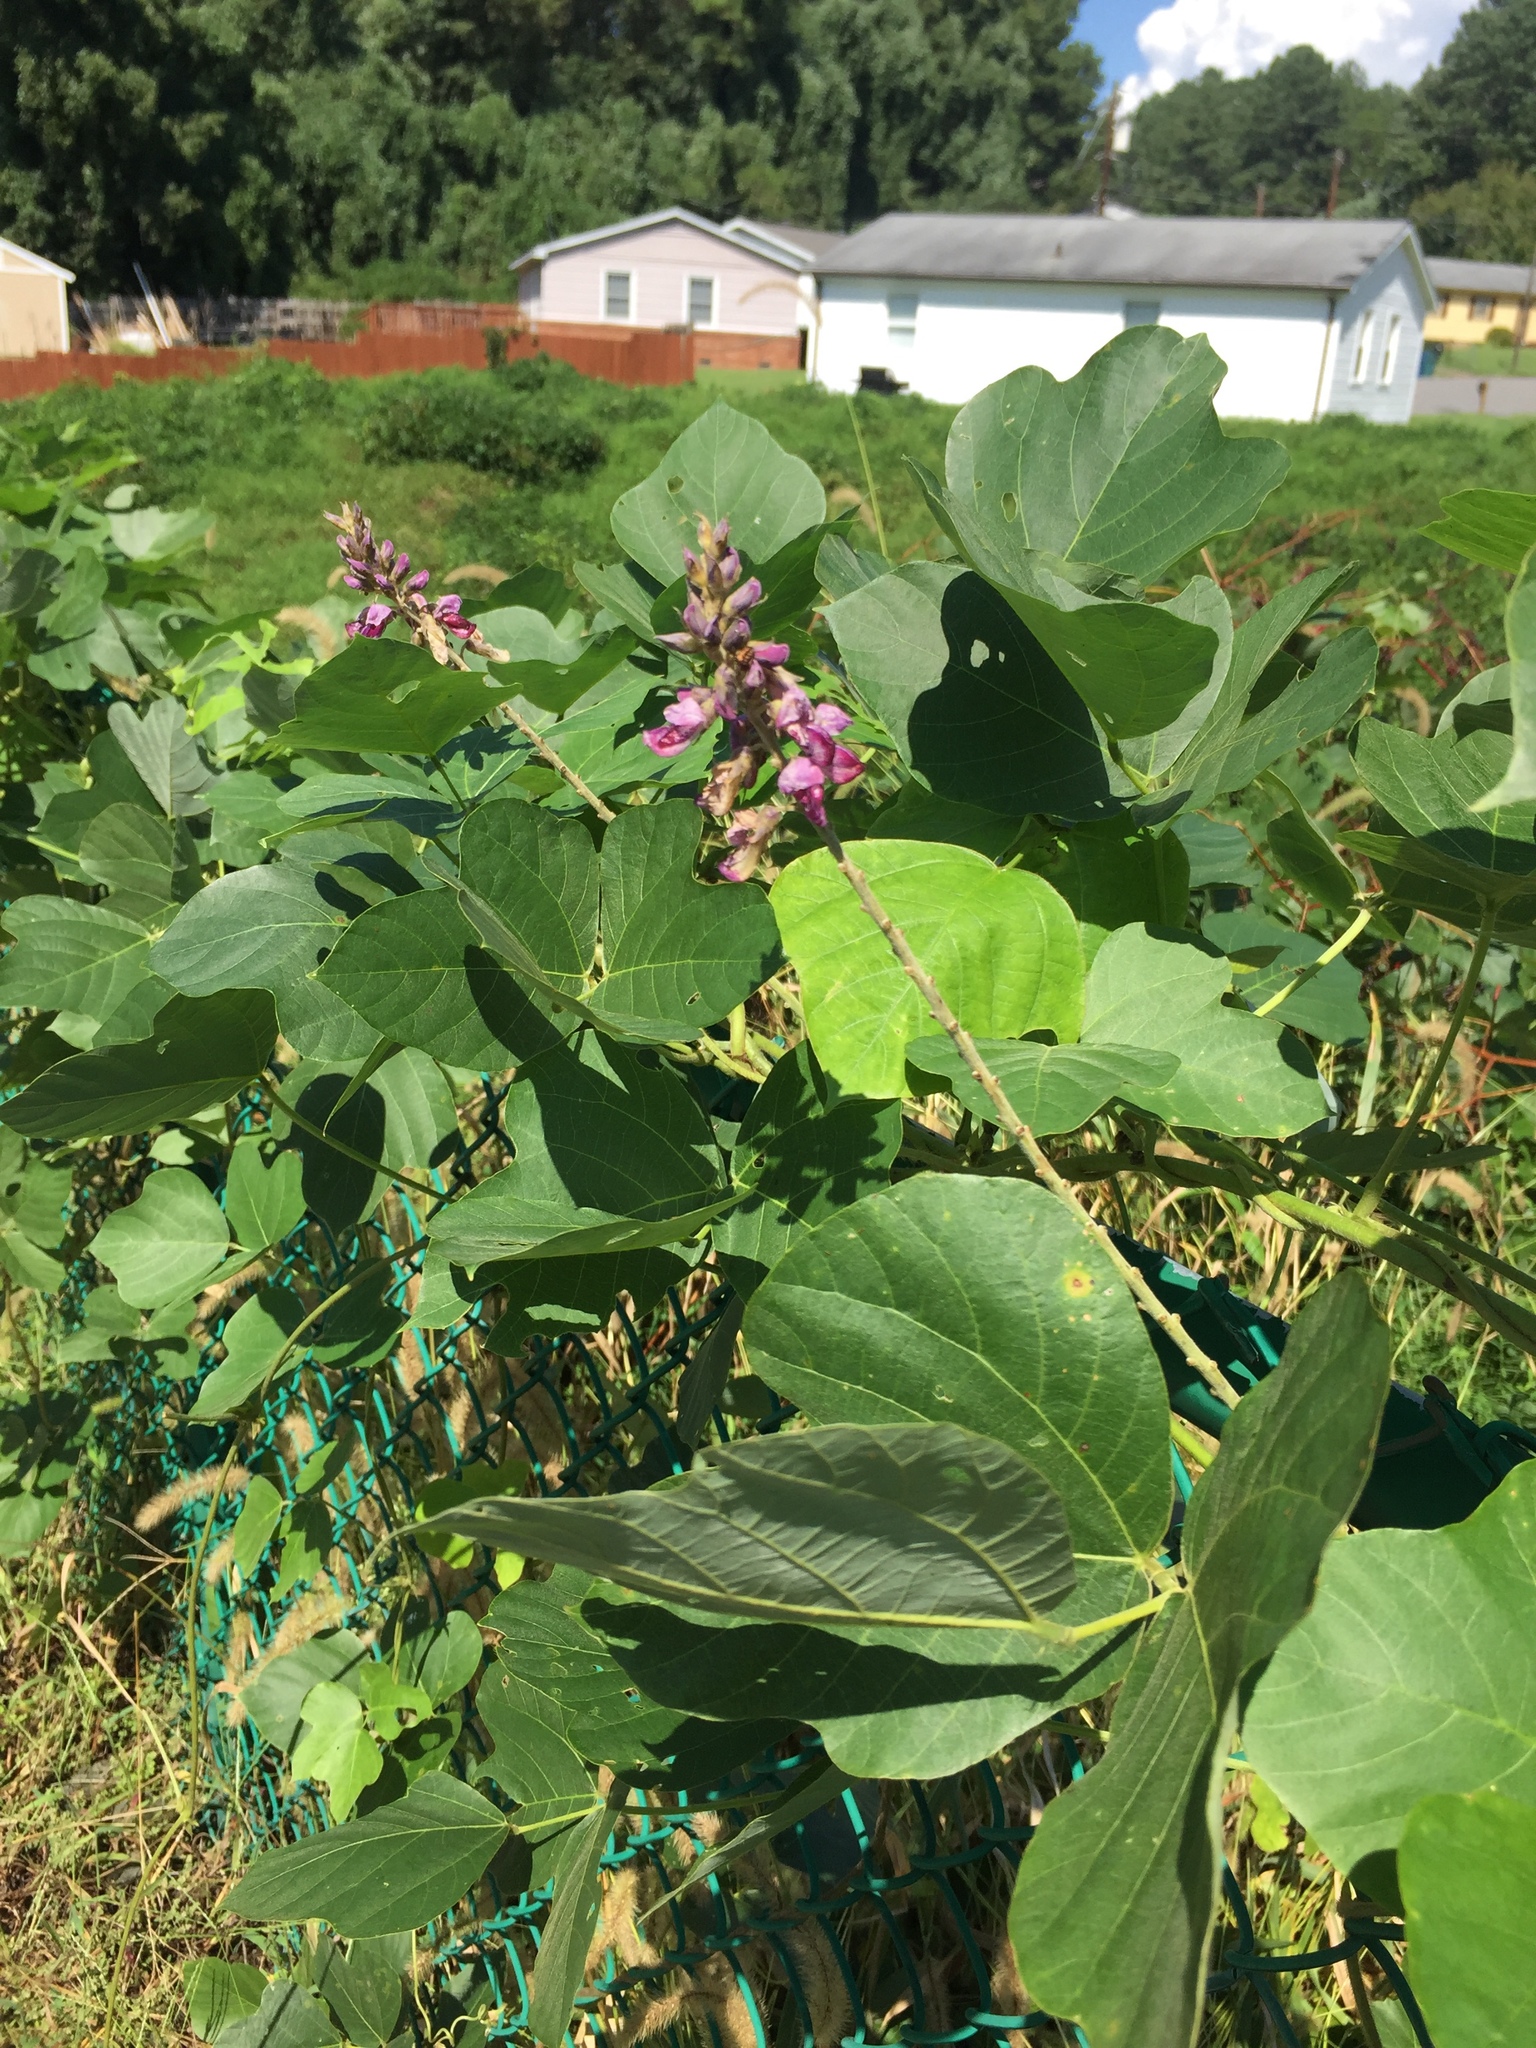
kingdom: Plantae
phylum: Tracheophyta
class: Magnoliopsida
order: Fabales
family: Fabaceae
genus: Pueraria
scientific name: Pueraria montana
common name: Kudzu
